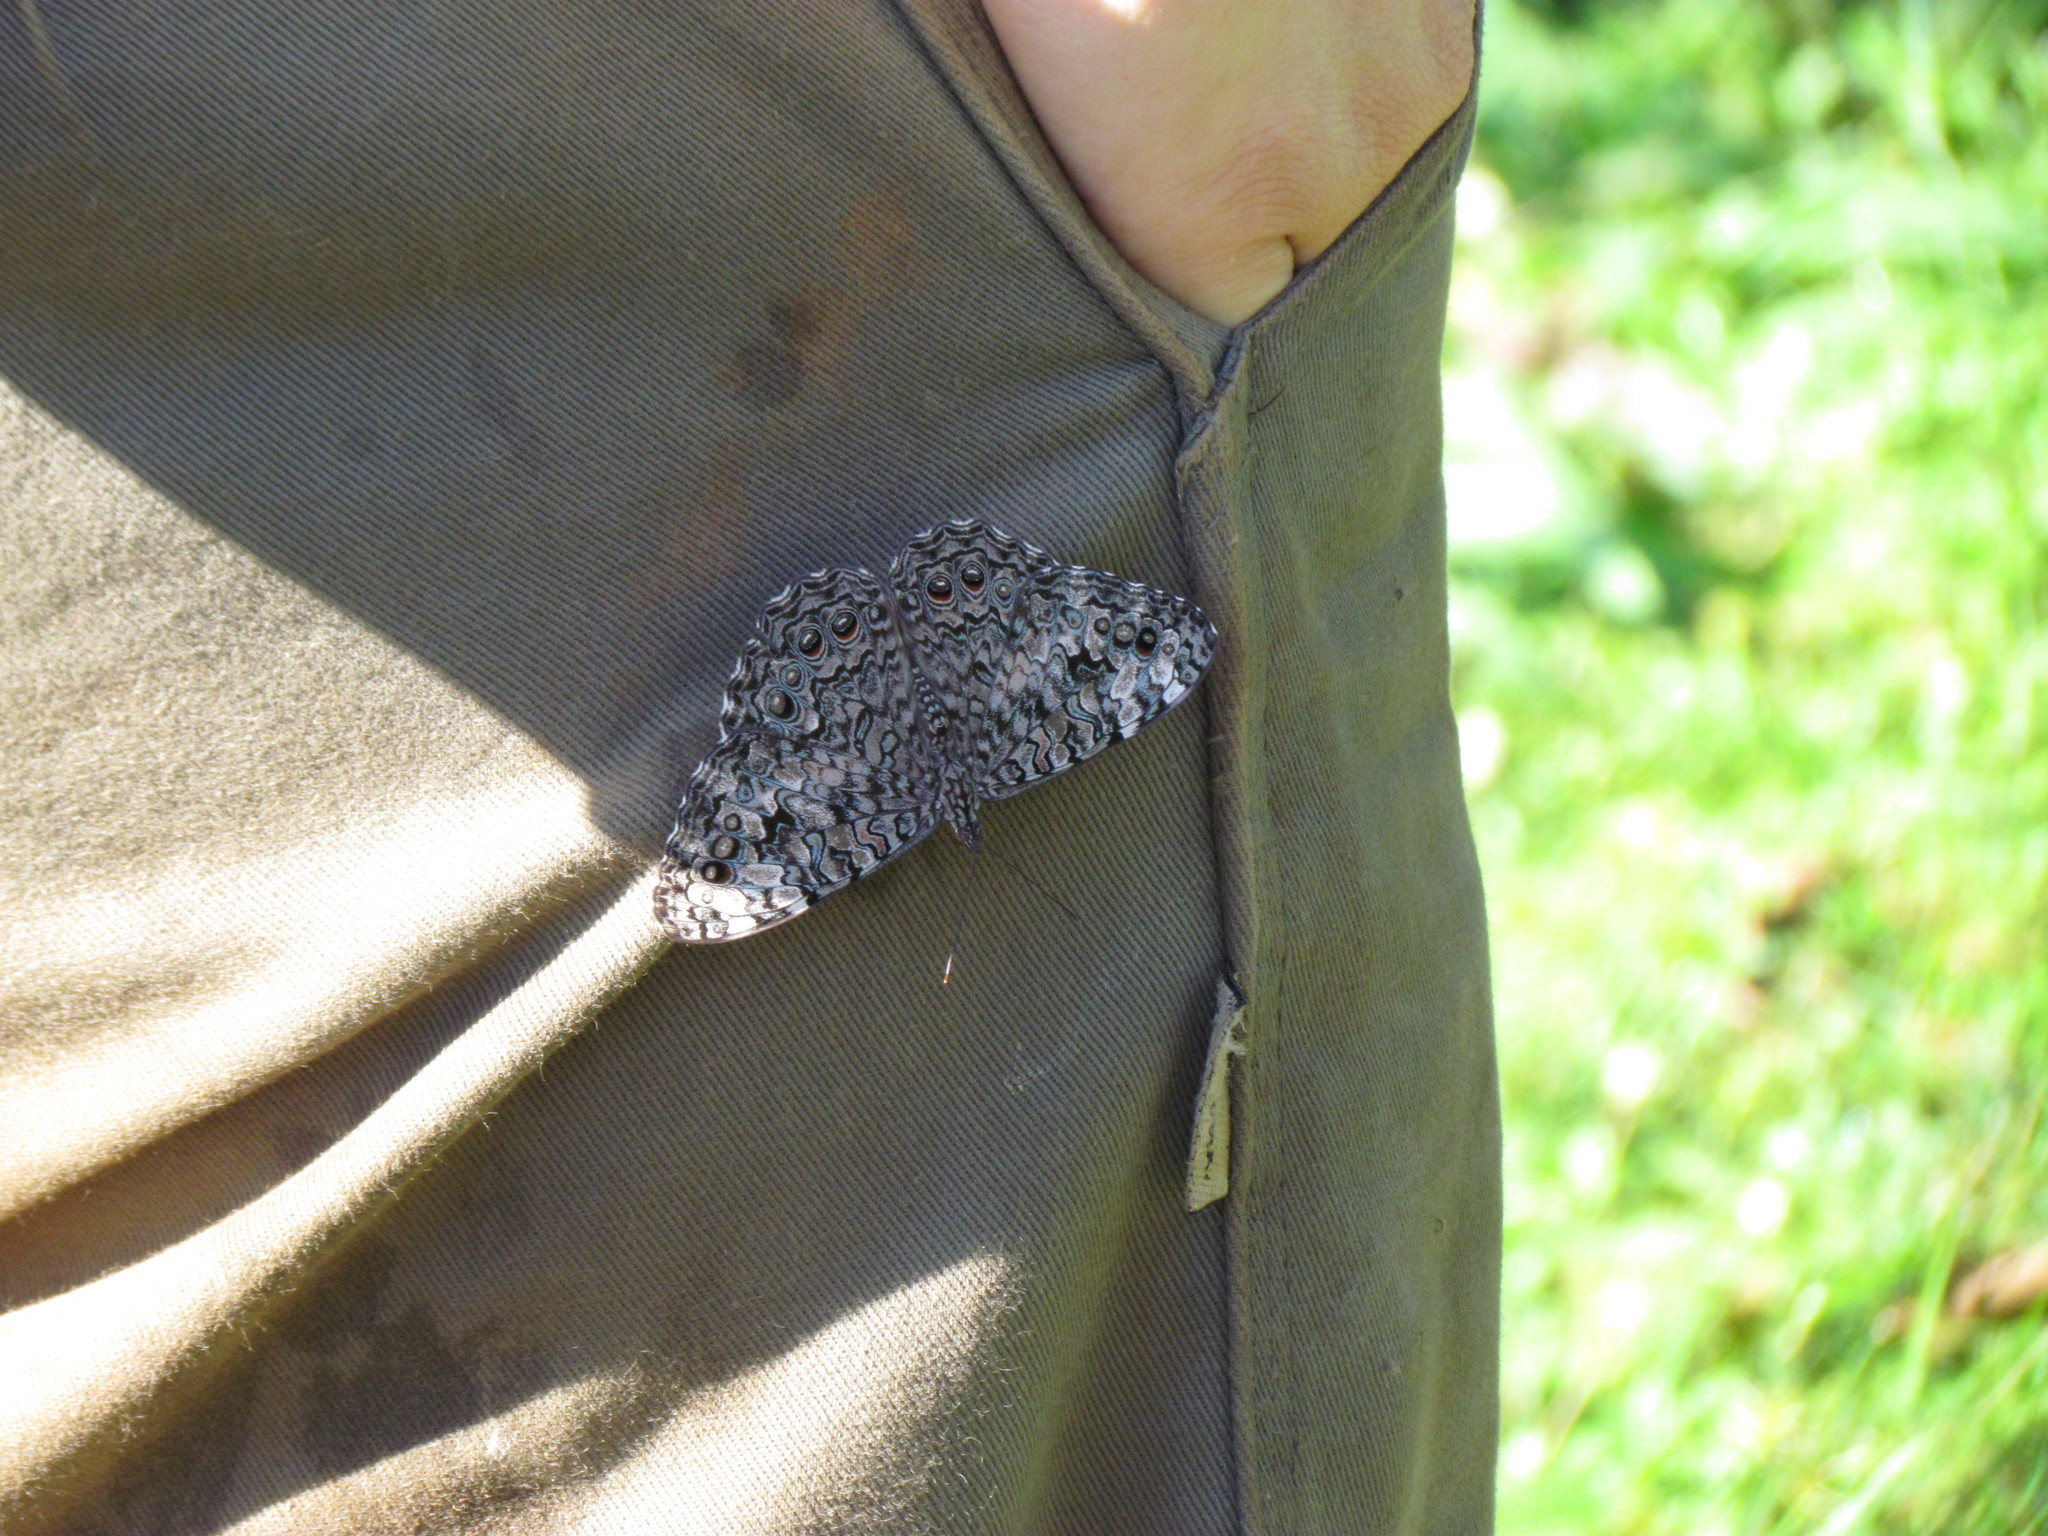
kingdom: Animalia
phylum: Arthropoda
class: Insecta
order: Lepidoptera
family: Nymphalidae
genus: Hamadryas
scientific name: Hamadryas februa
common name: Gray cracker
